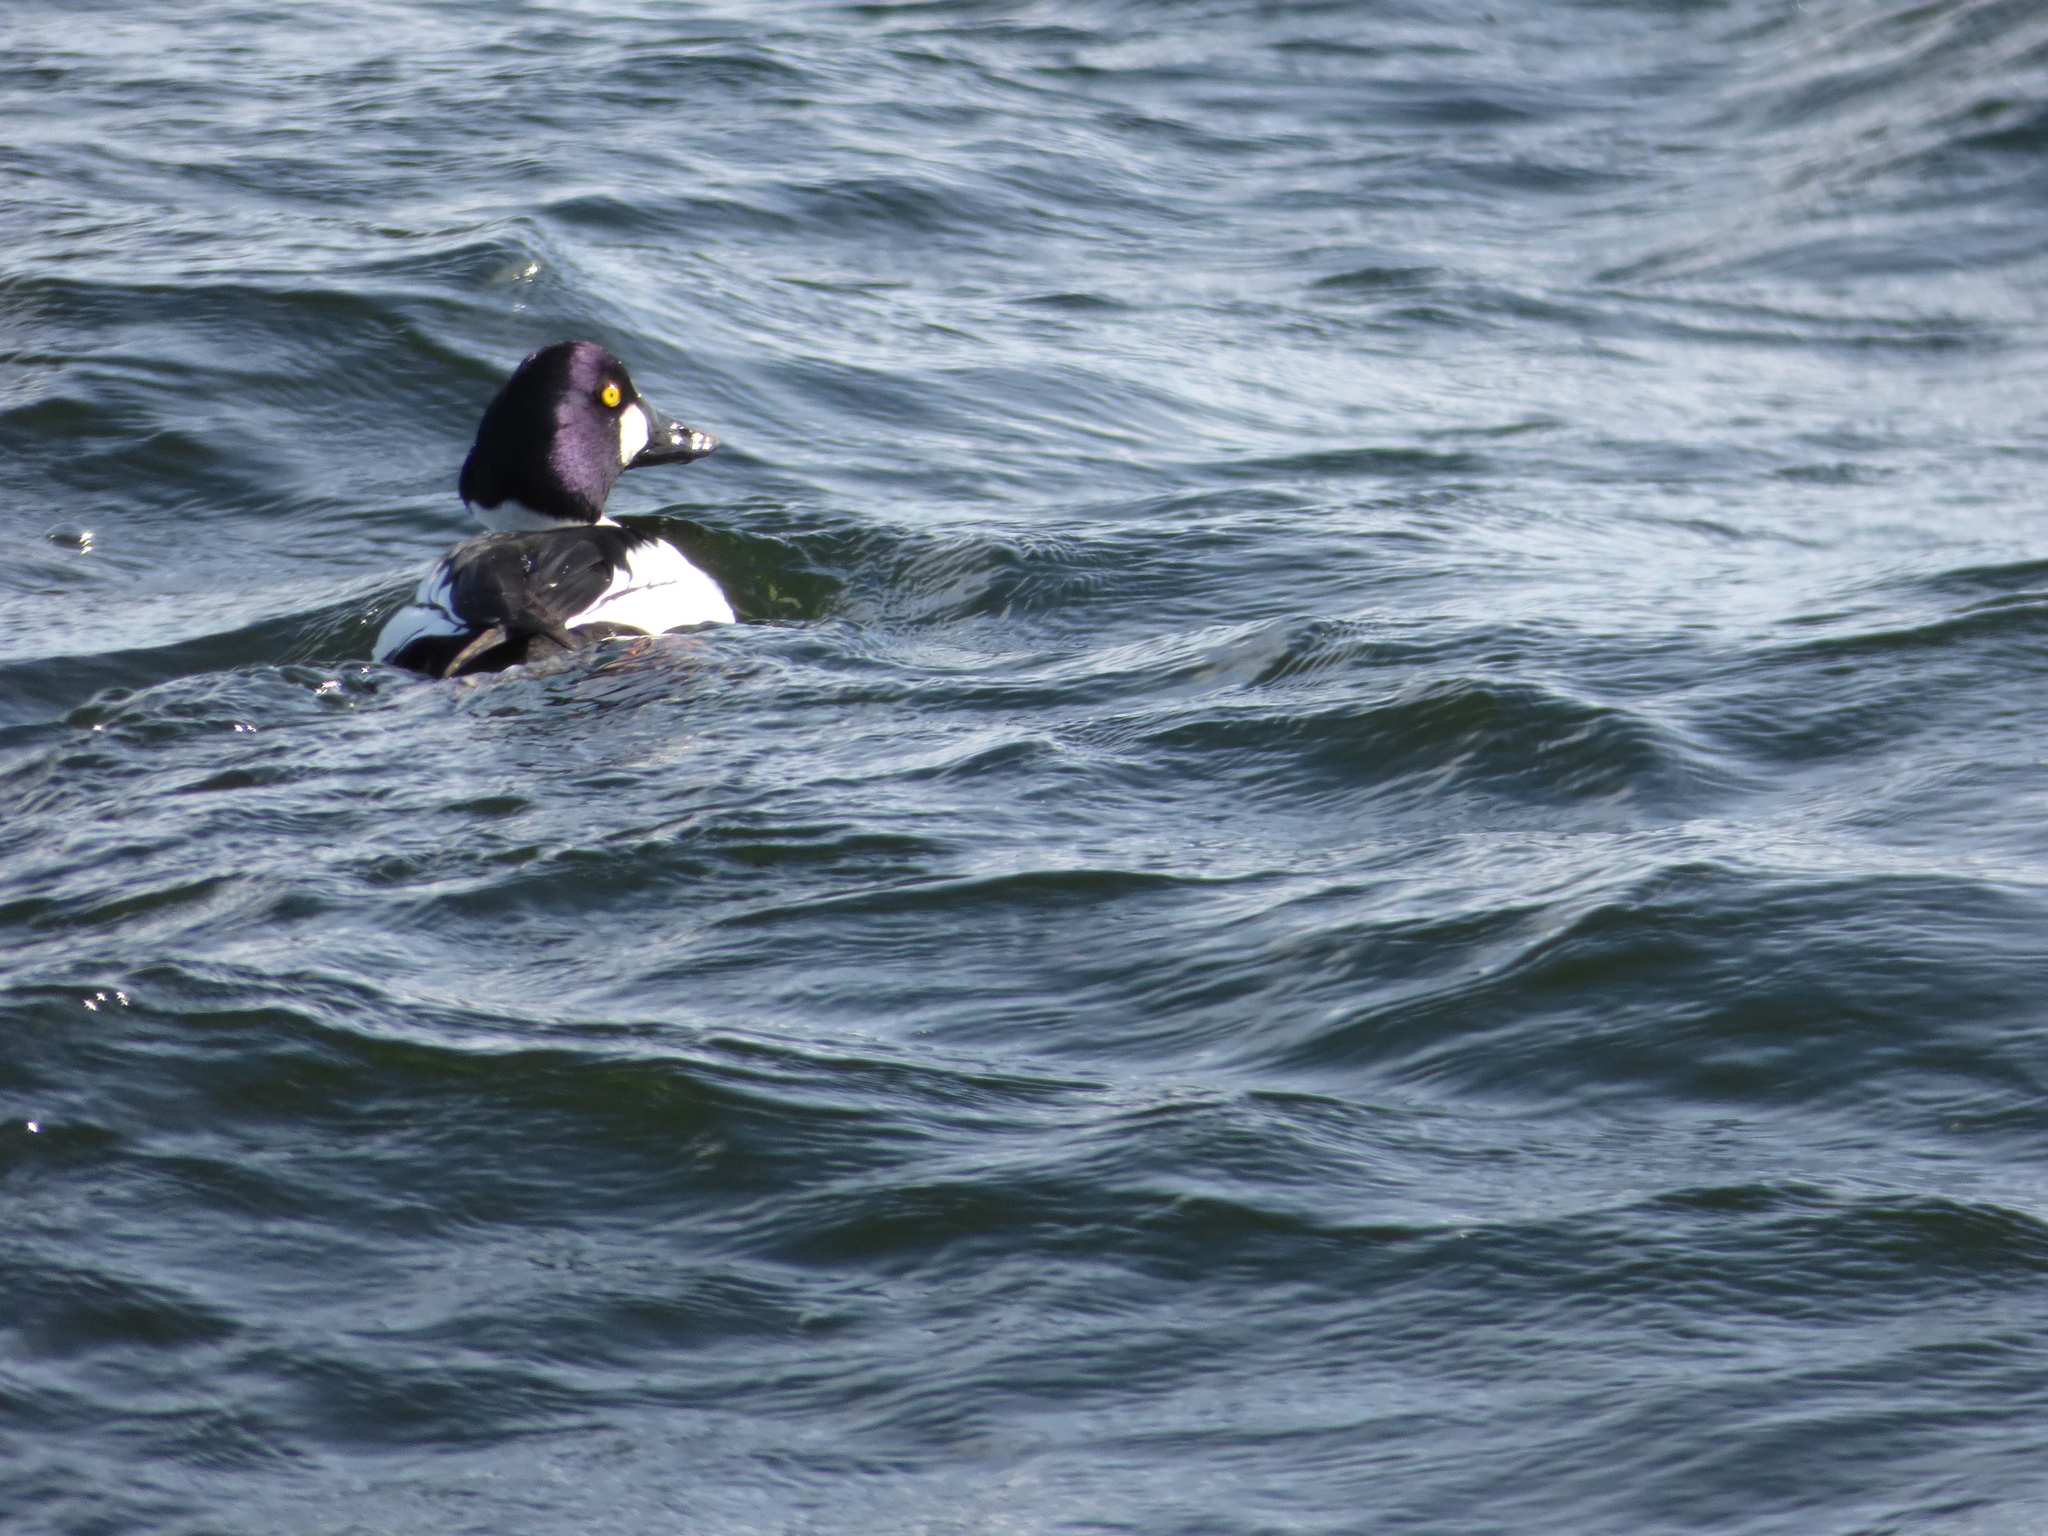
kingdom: Animalia
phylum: Chordata
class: Aves
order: Anseriformes
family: Anatidae
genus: Bucephala
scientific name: Bucephala clangula
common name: Common goldeneye
